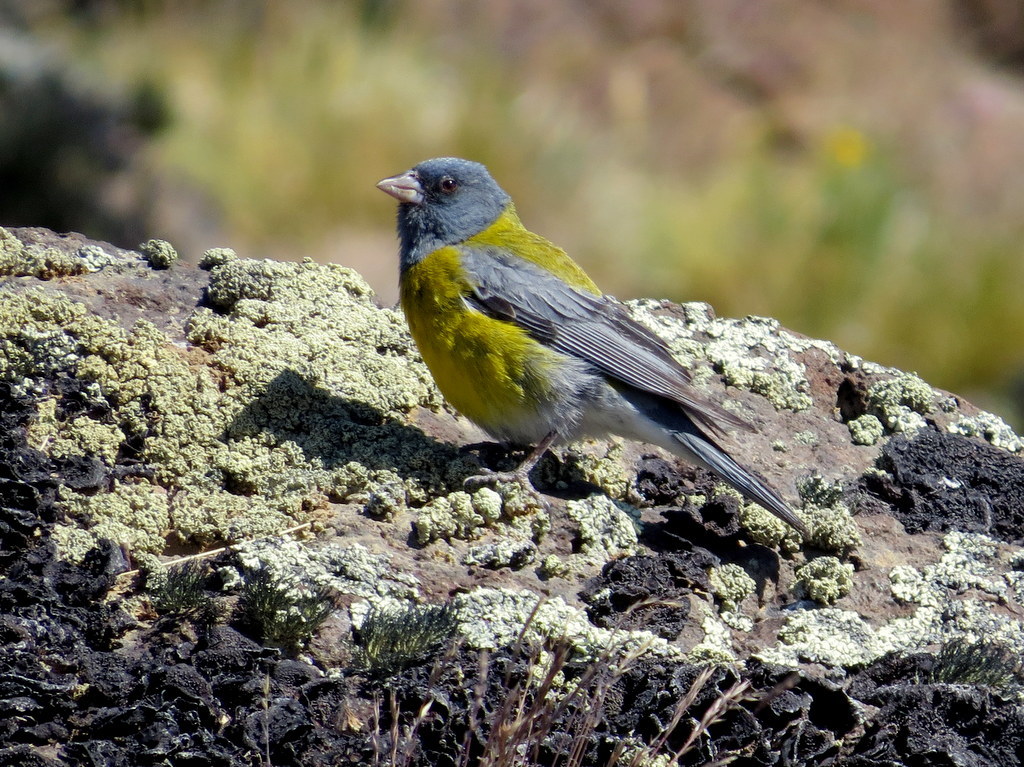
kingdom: Animalia
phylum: Chordata
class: Aves
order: Passeriformes
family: Thraupidae
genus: Phrygilus
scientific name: Phrygilus gayi
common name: Grey-hooded sierra finch
